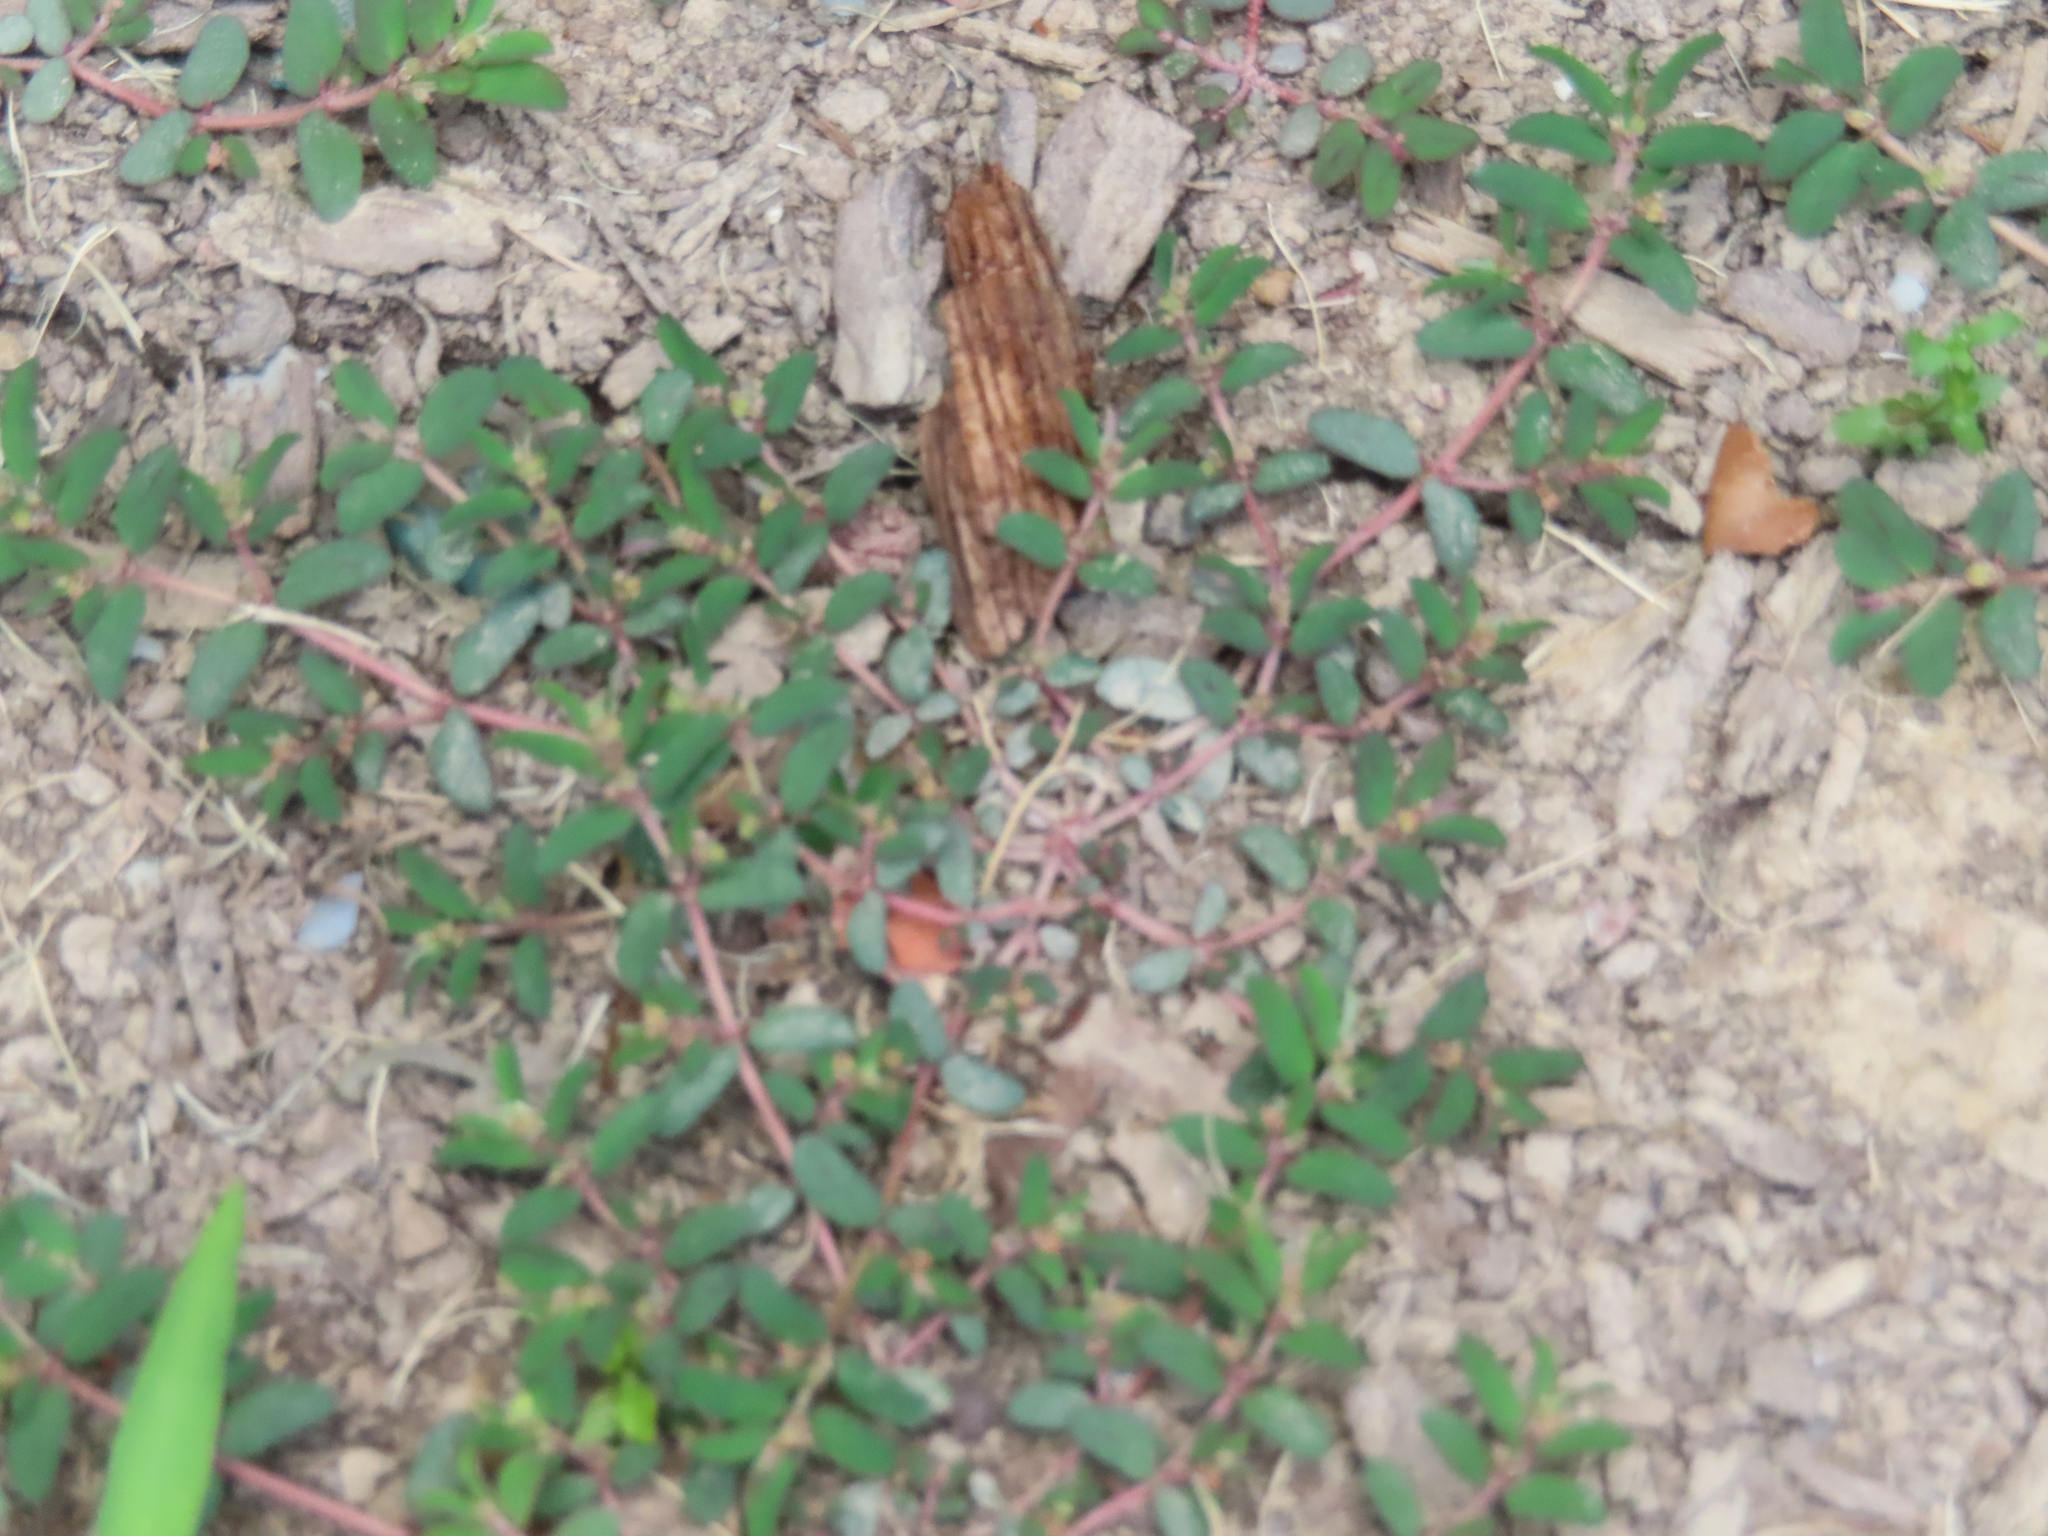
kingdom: Plantae
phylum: Tracheophyta
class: Magnoliopsida
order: Malpighiales
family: Euphorbiaceae
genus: Euphorbia
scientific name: Euphorbia maculata
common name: Spotted spurge
